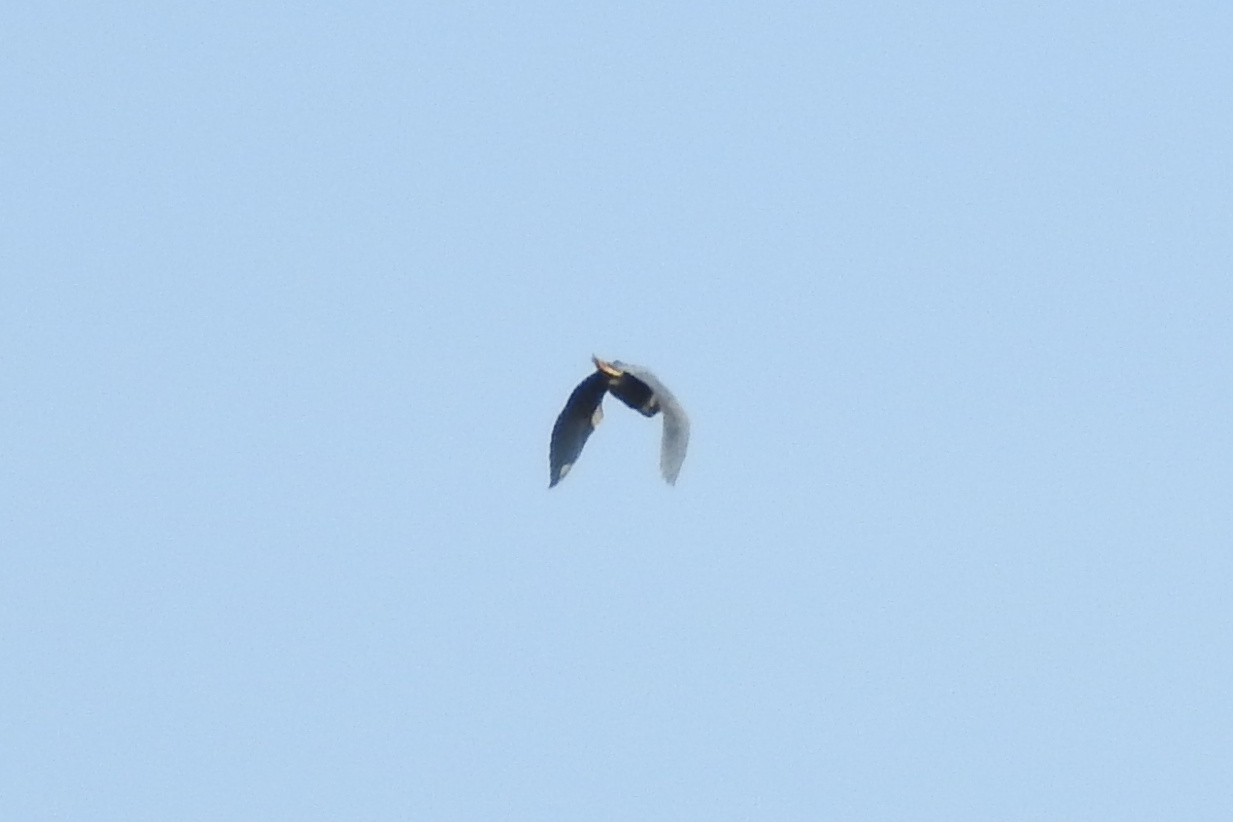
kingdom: Animalia
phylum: Chordata
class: Aves
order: Pelecaniformes
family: Ardeidae
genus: Butorides
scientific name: Butorides virescens
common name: Green heron
